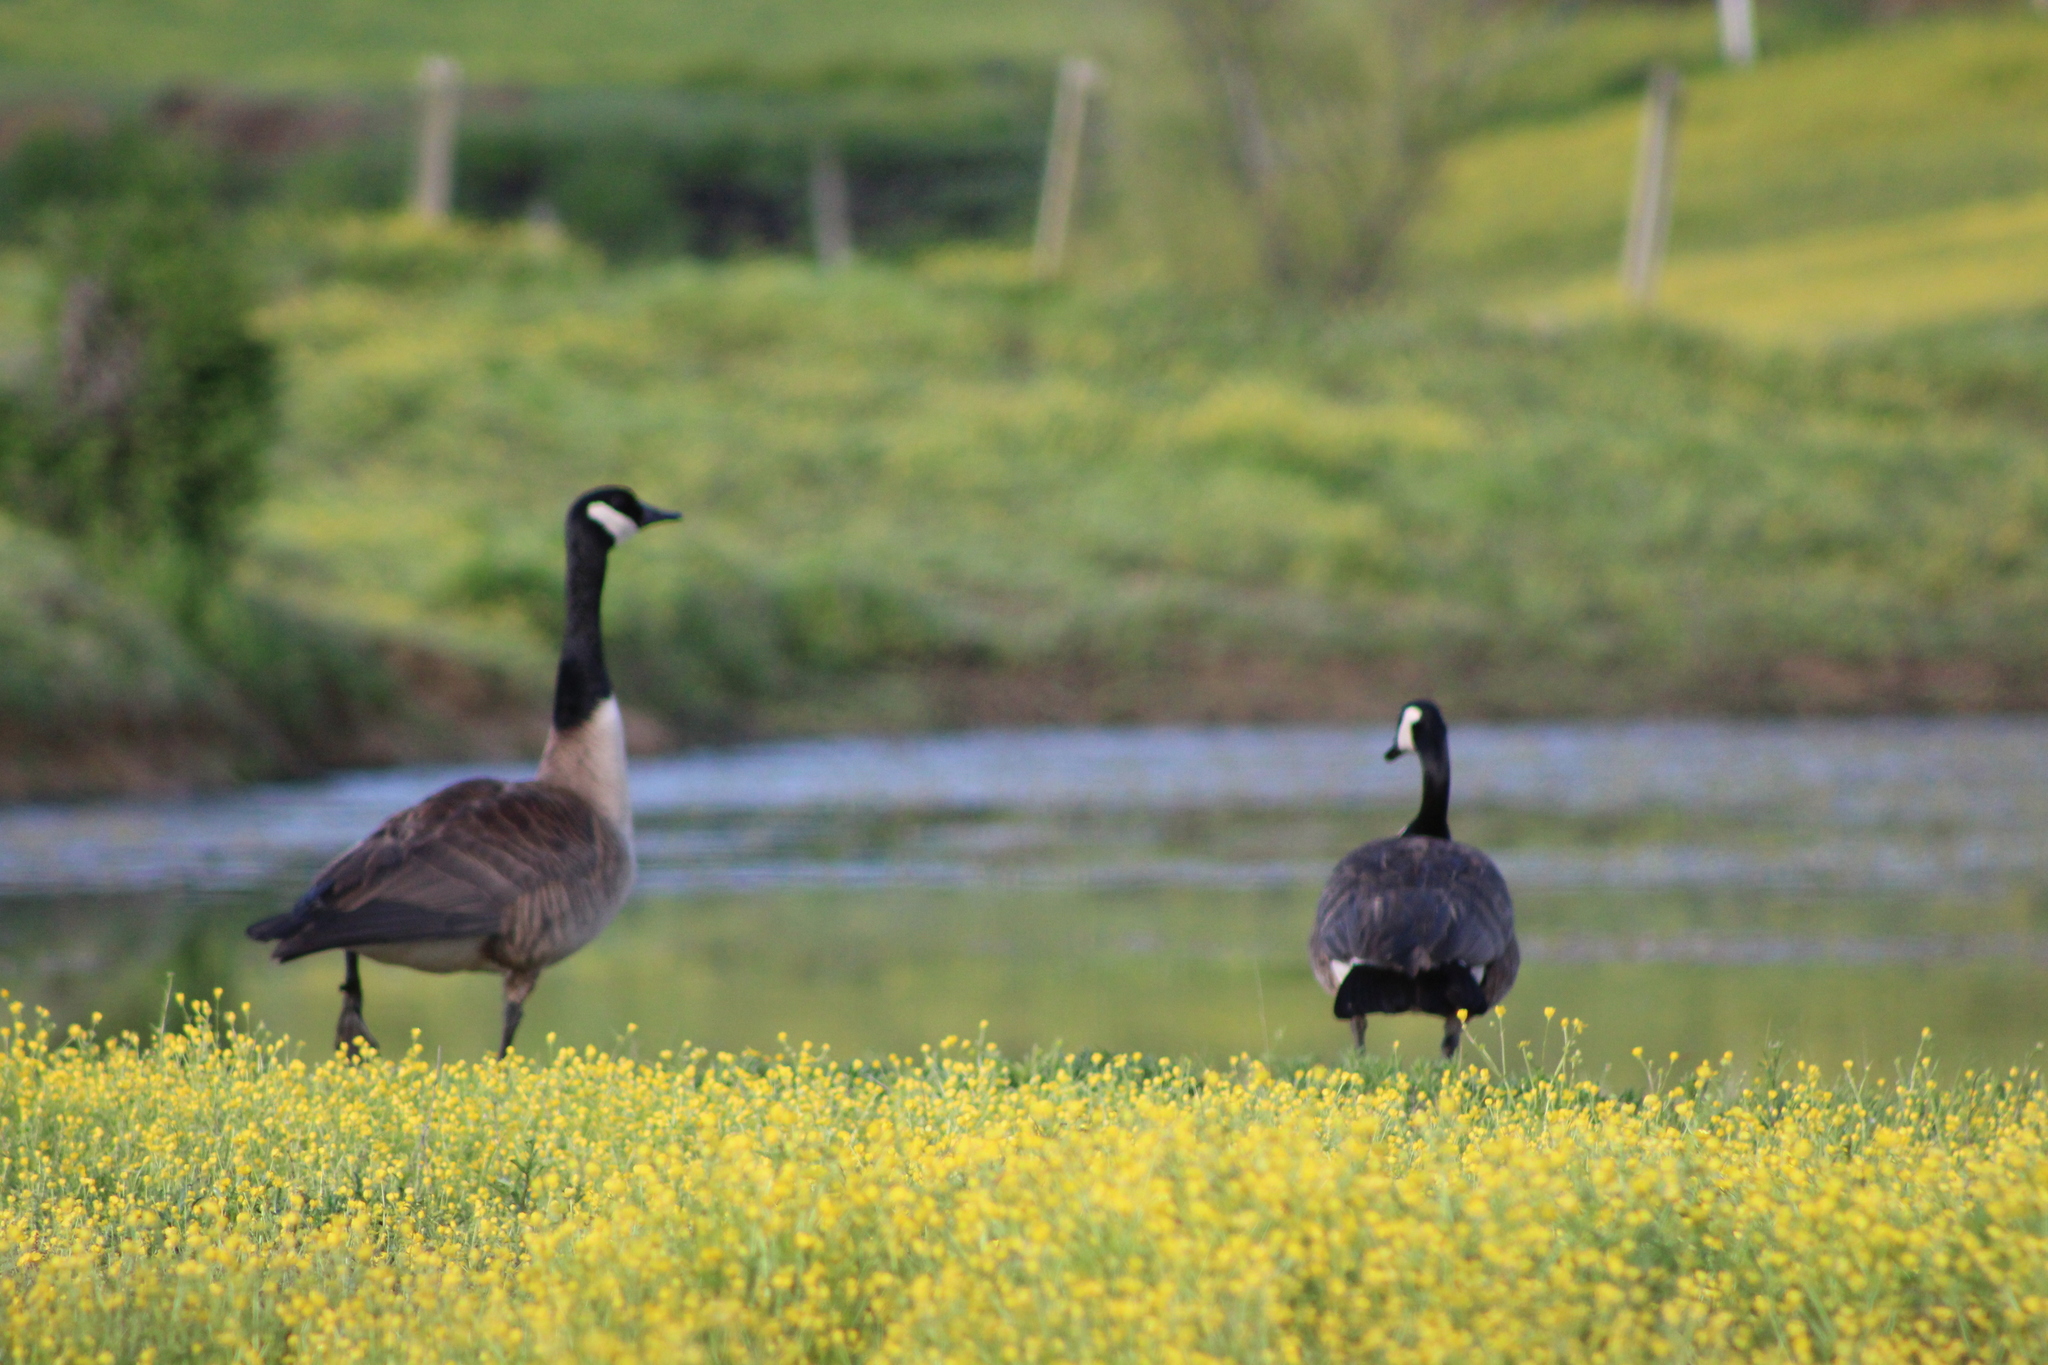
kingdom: Animalia
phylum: Chordata
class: Aves
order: Anseriformes
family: Anatidae
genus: Branta
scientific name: Branta canadensis
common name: Canada goose
